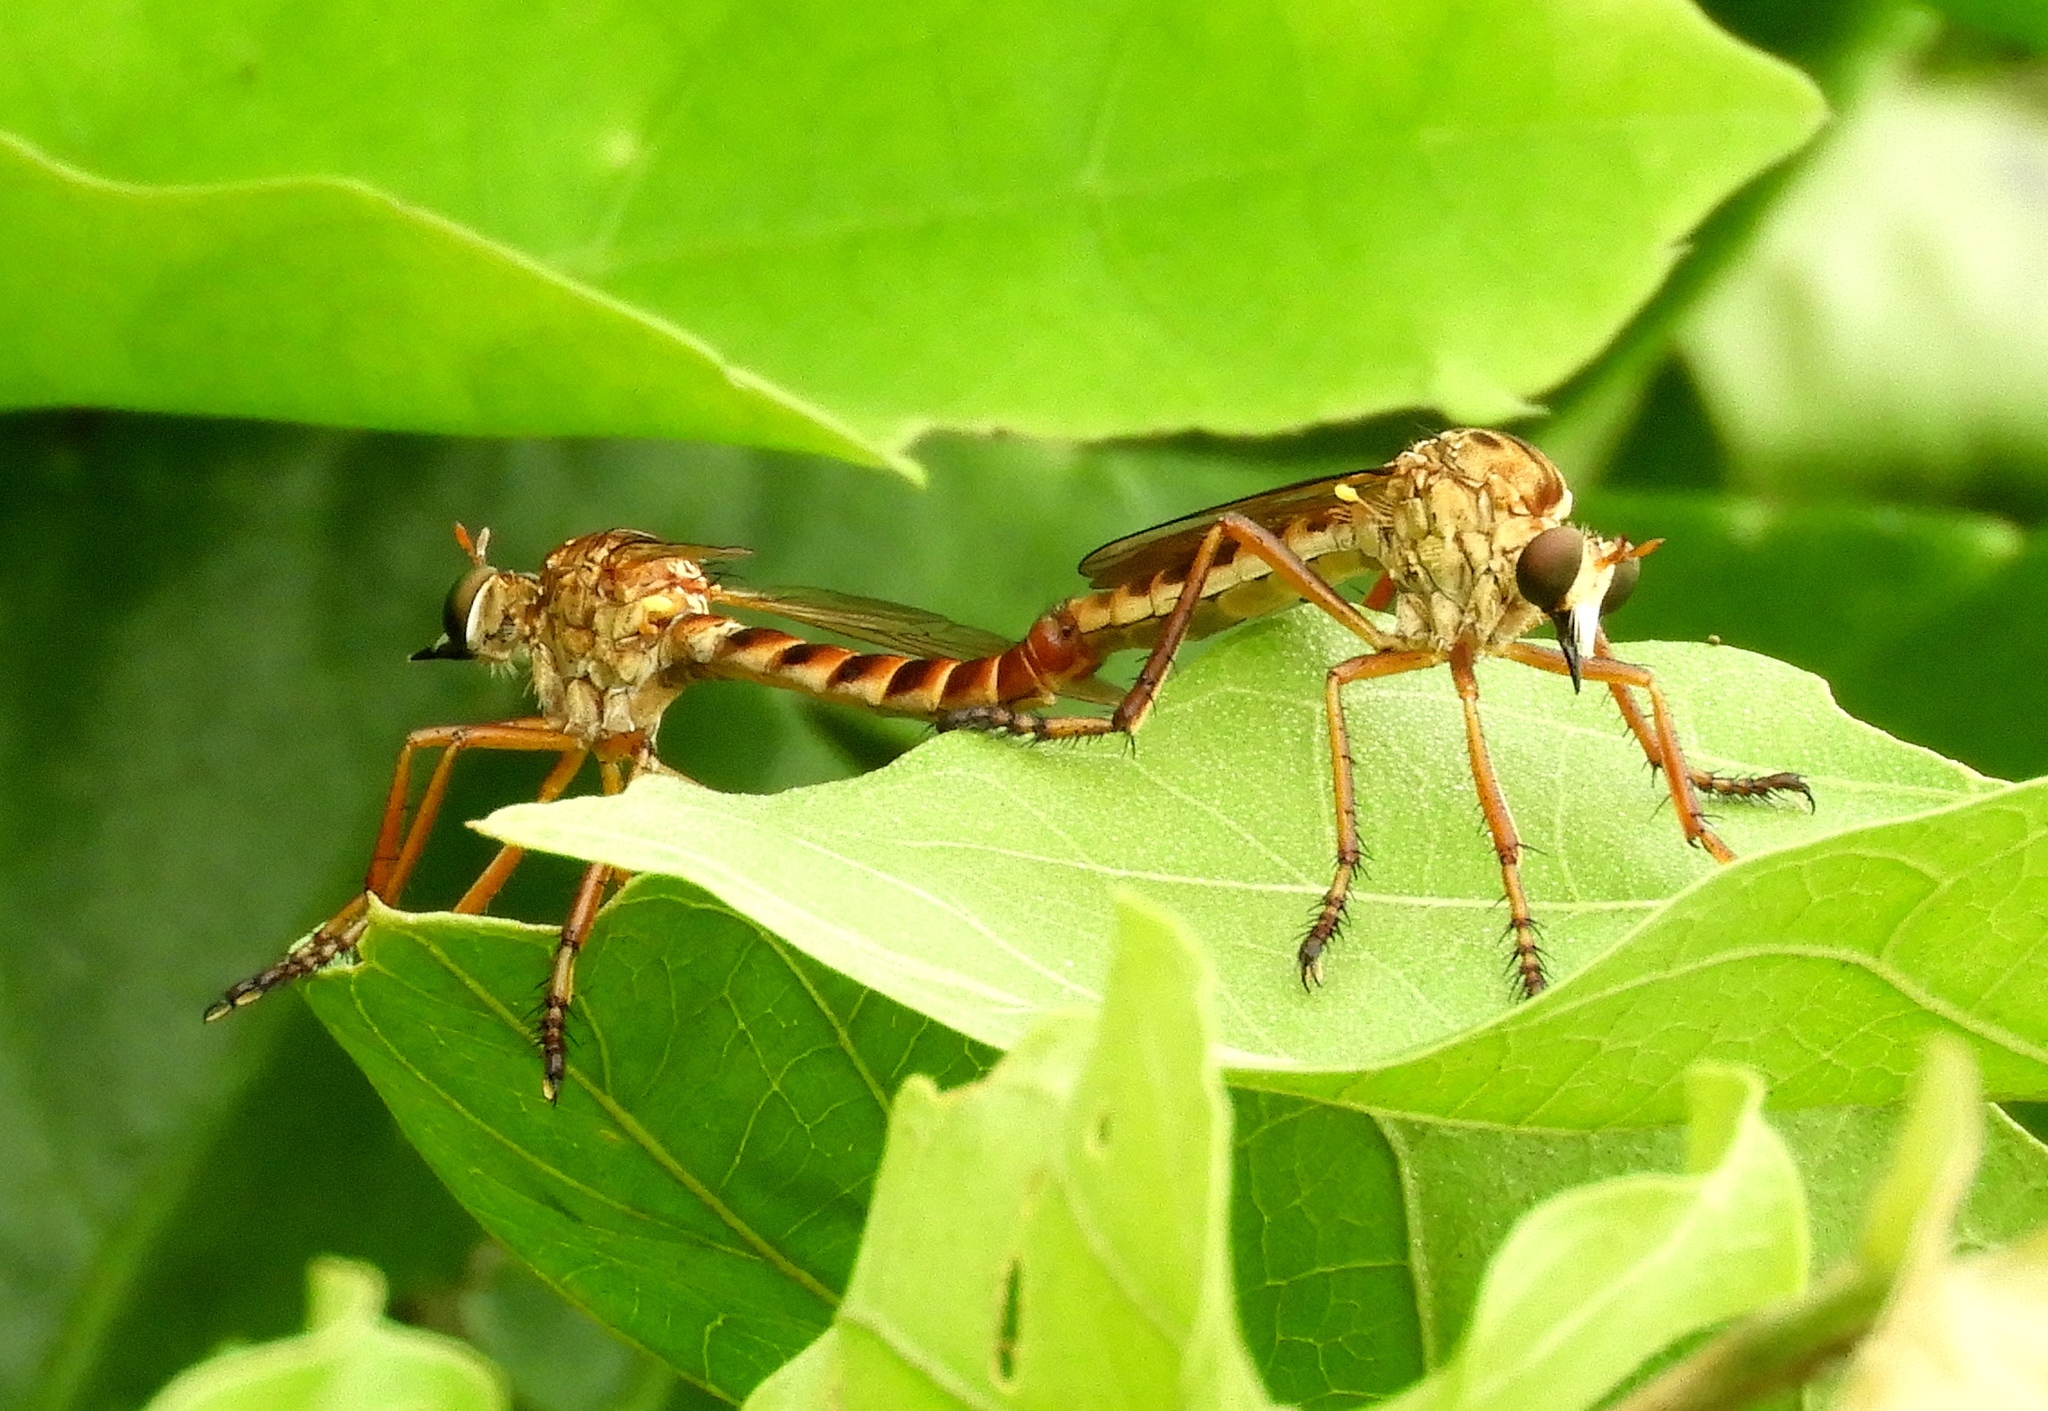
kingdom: Animalia
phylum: Arthropoda
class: Insecta
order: Diptera
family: Asilidae
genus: Diogmites
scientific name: Diogmites
